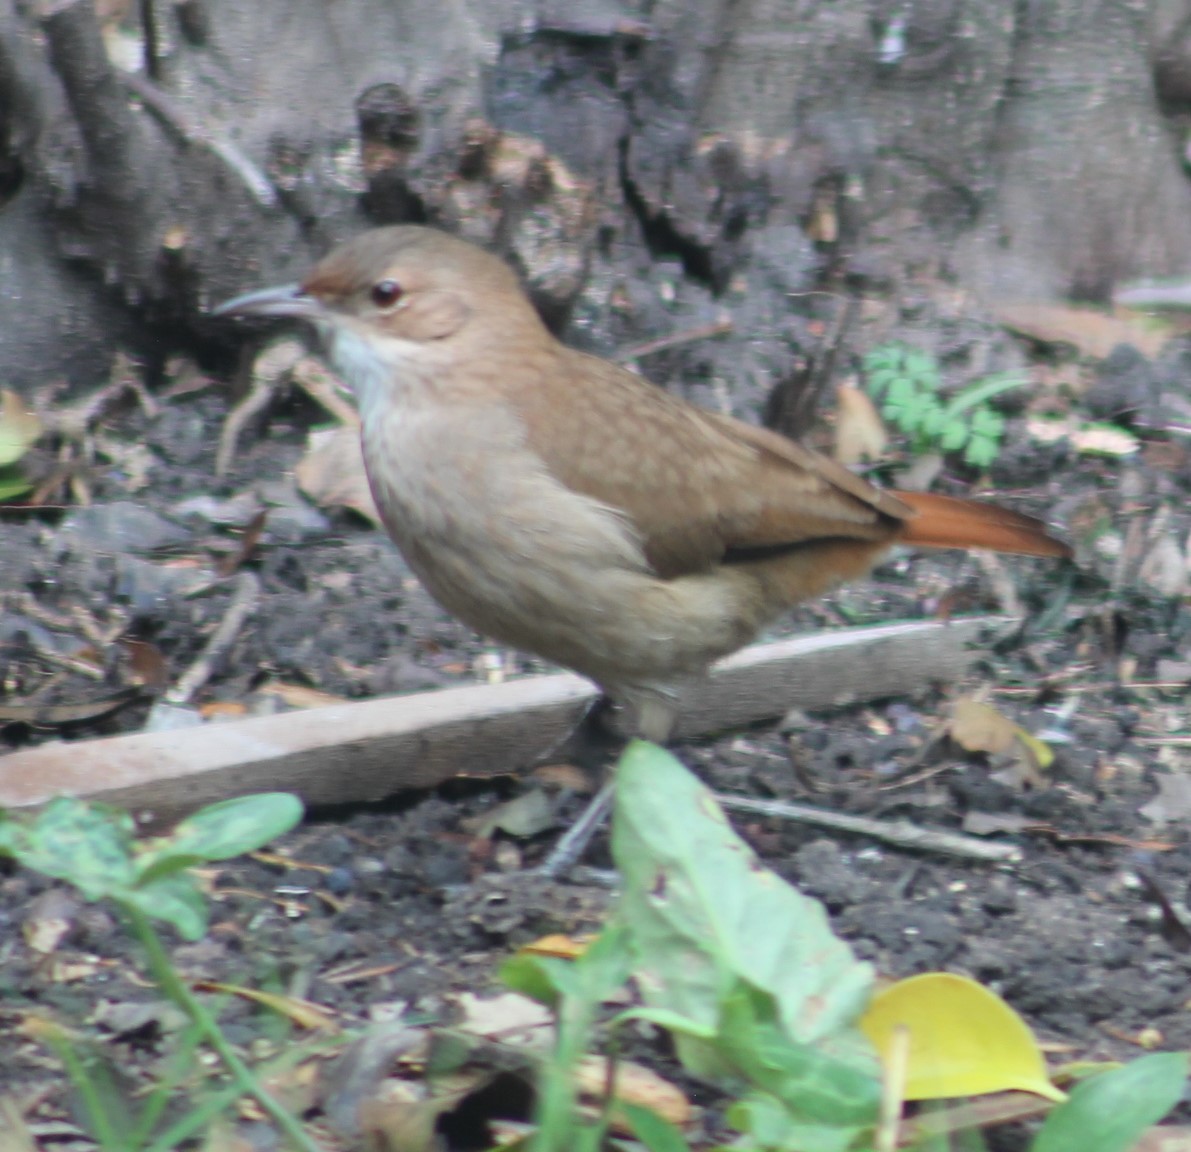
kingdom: Animalia
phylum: Chordata
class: Aves
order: Passeriformes
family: Furnariidae
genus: Furnarius
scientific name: Furnarius rufus
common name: Rufous hornero
